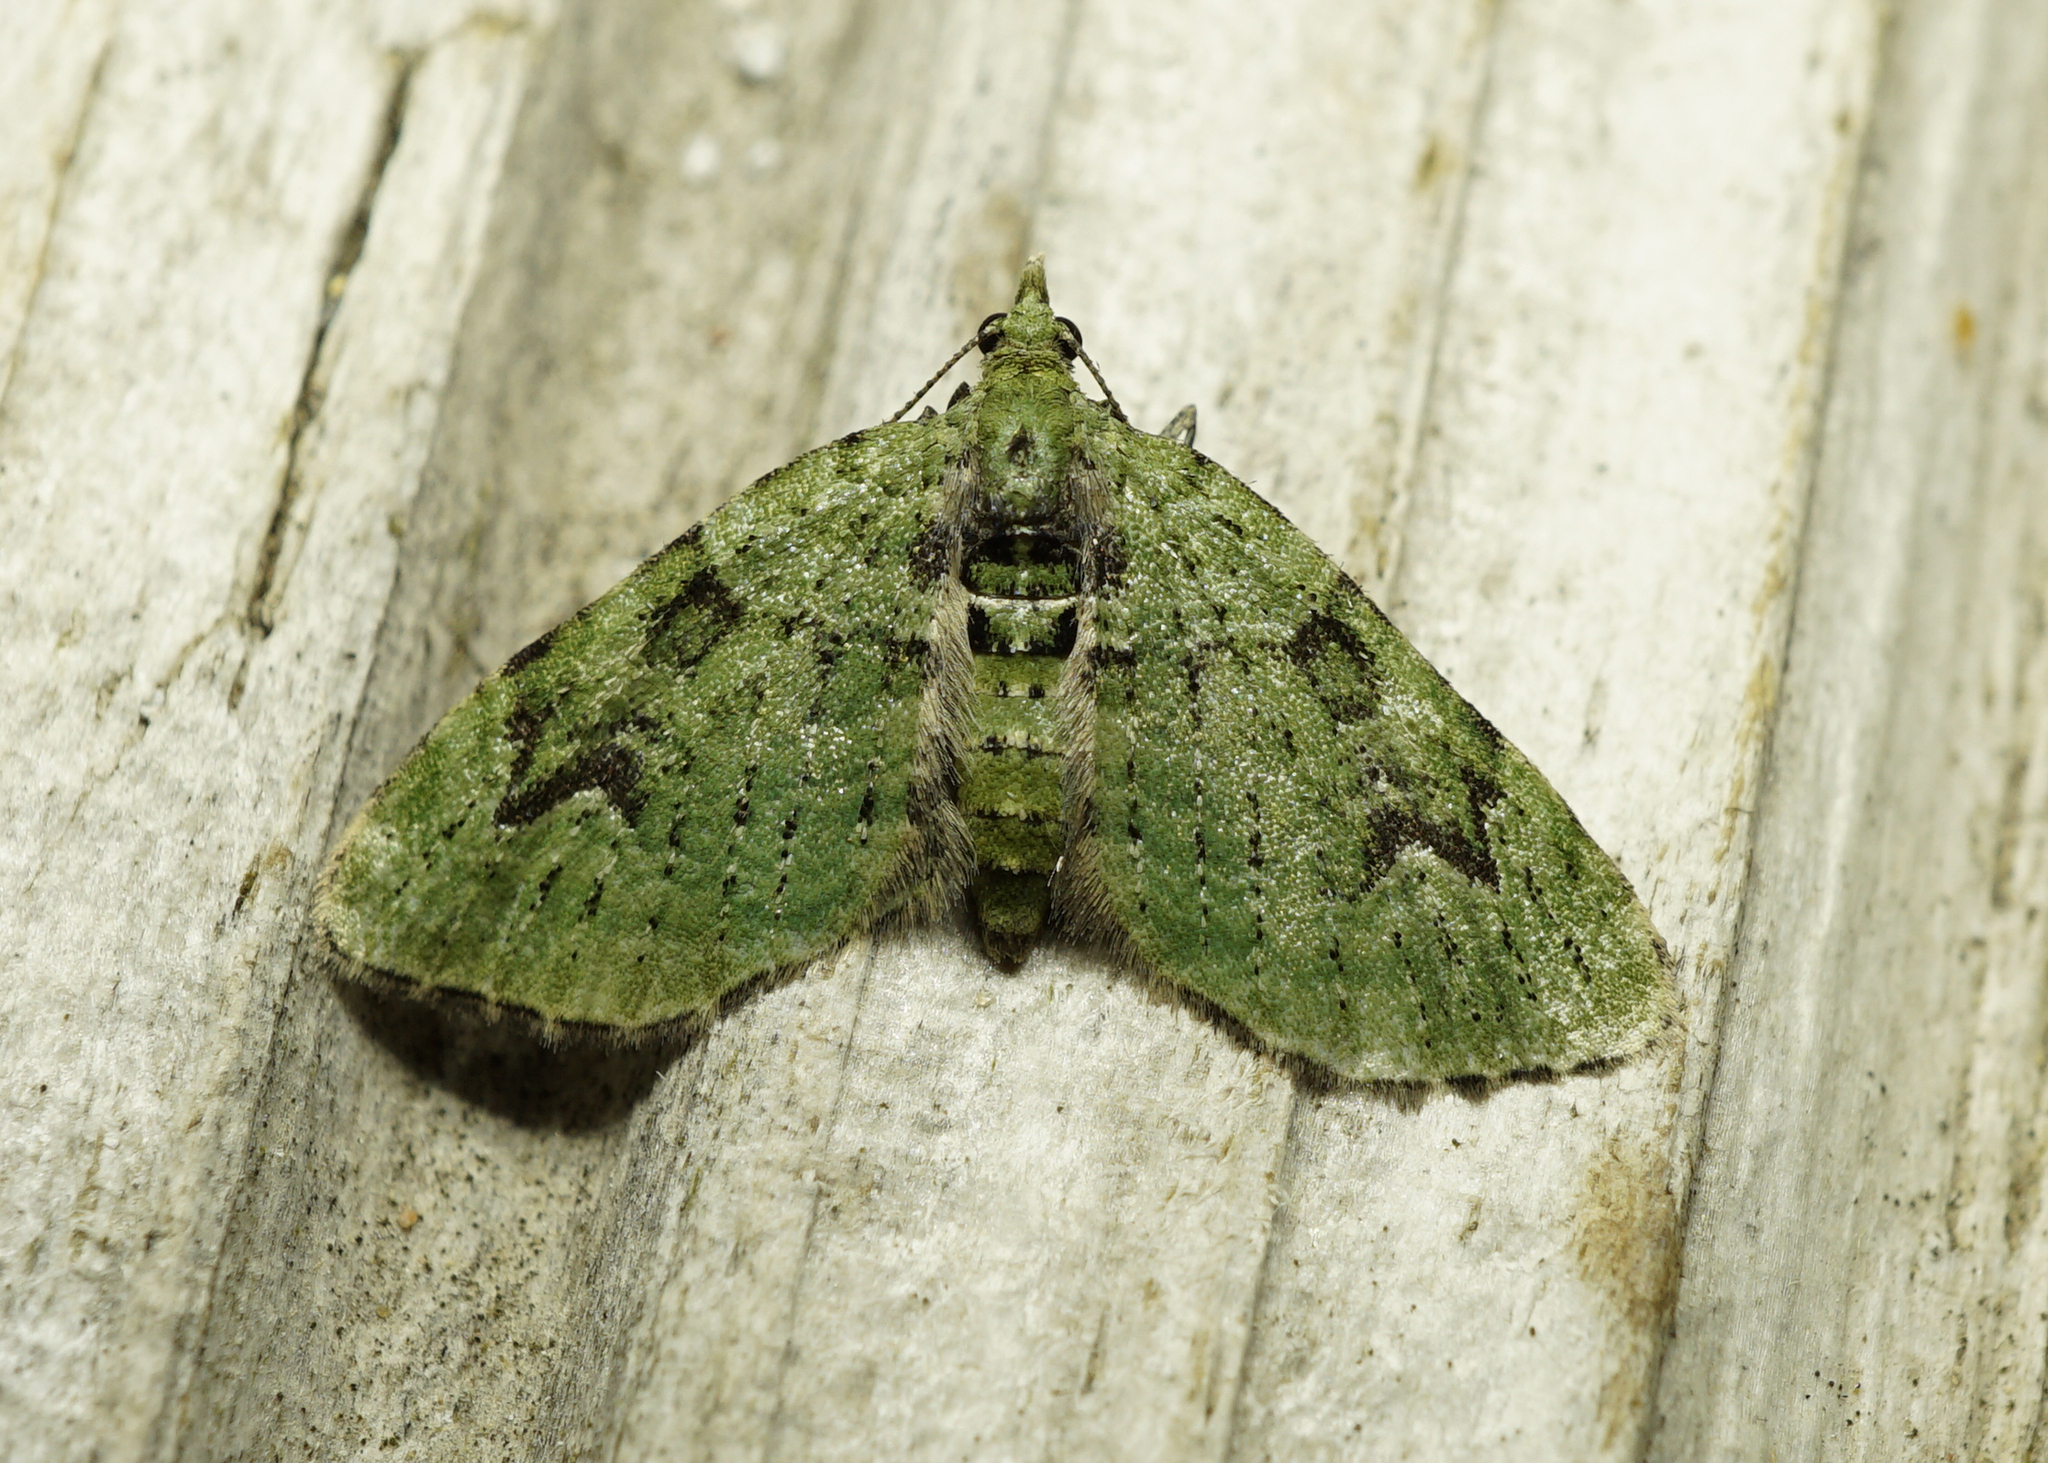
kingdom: Animalia
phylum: Arthropoda
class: Insecta
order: Lepidoptera
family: Geometridae
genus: Chloroclystis
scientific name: Chloroclystis v-ata
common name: V-pug
